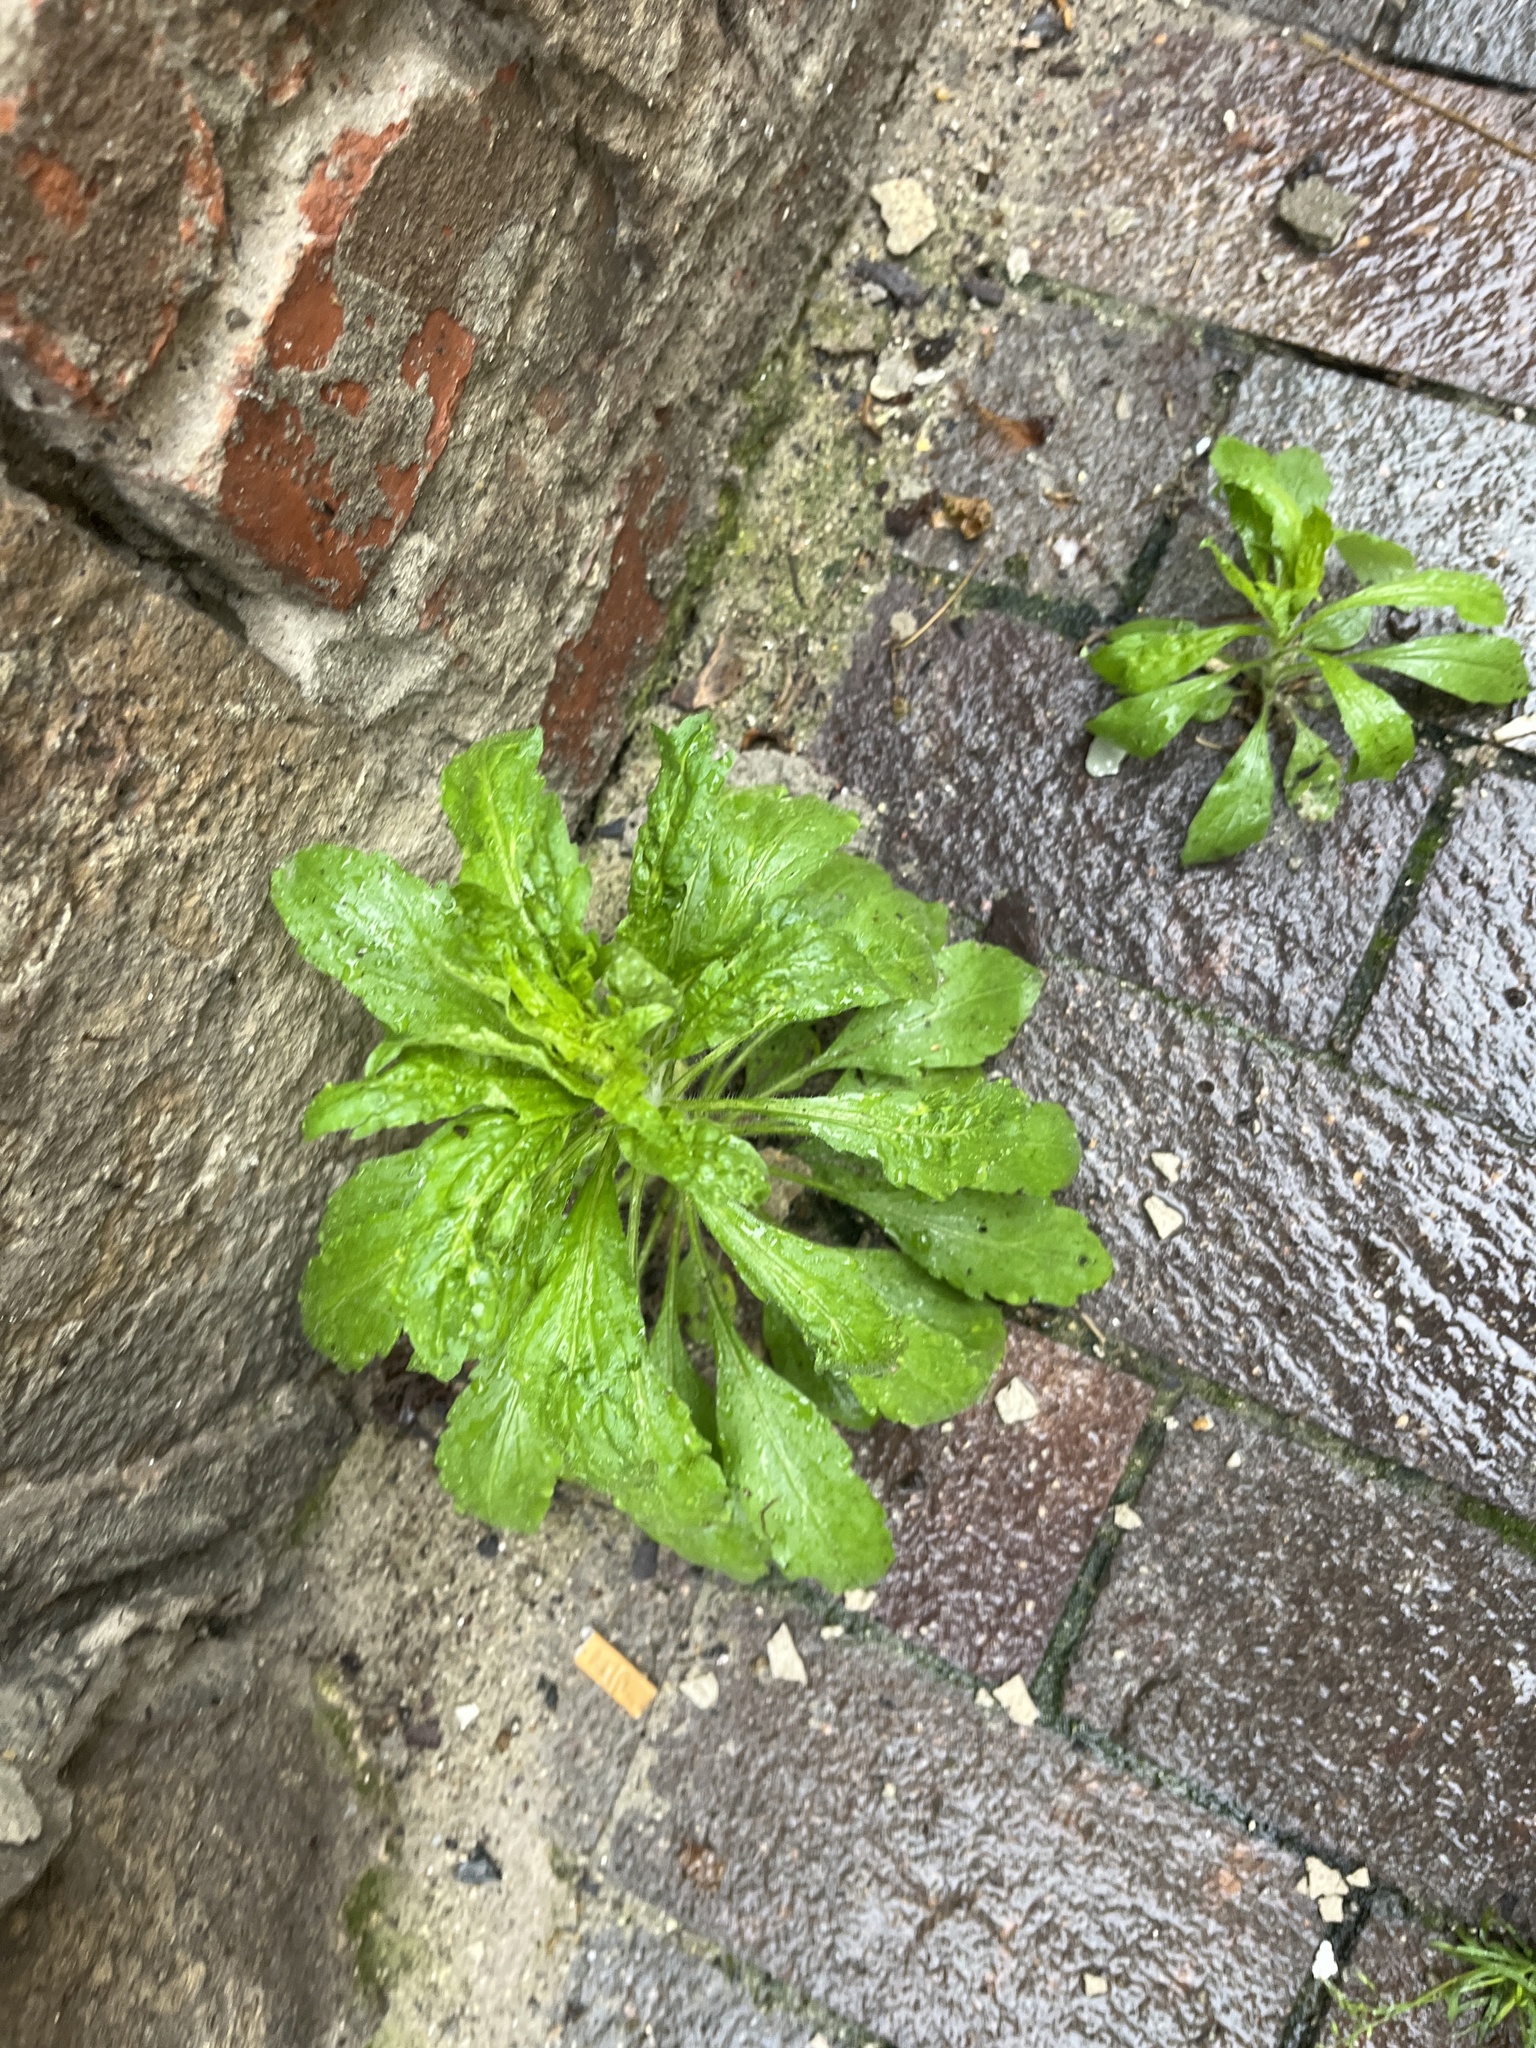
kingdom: Plantae
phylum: Tracheophyta
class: Magnoliopsida
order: Asterales
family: Asteraceae
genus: Erigeron
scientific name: Erigeron canadensis
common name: Canadian fleabane
